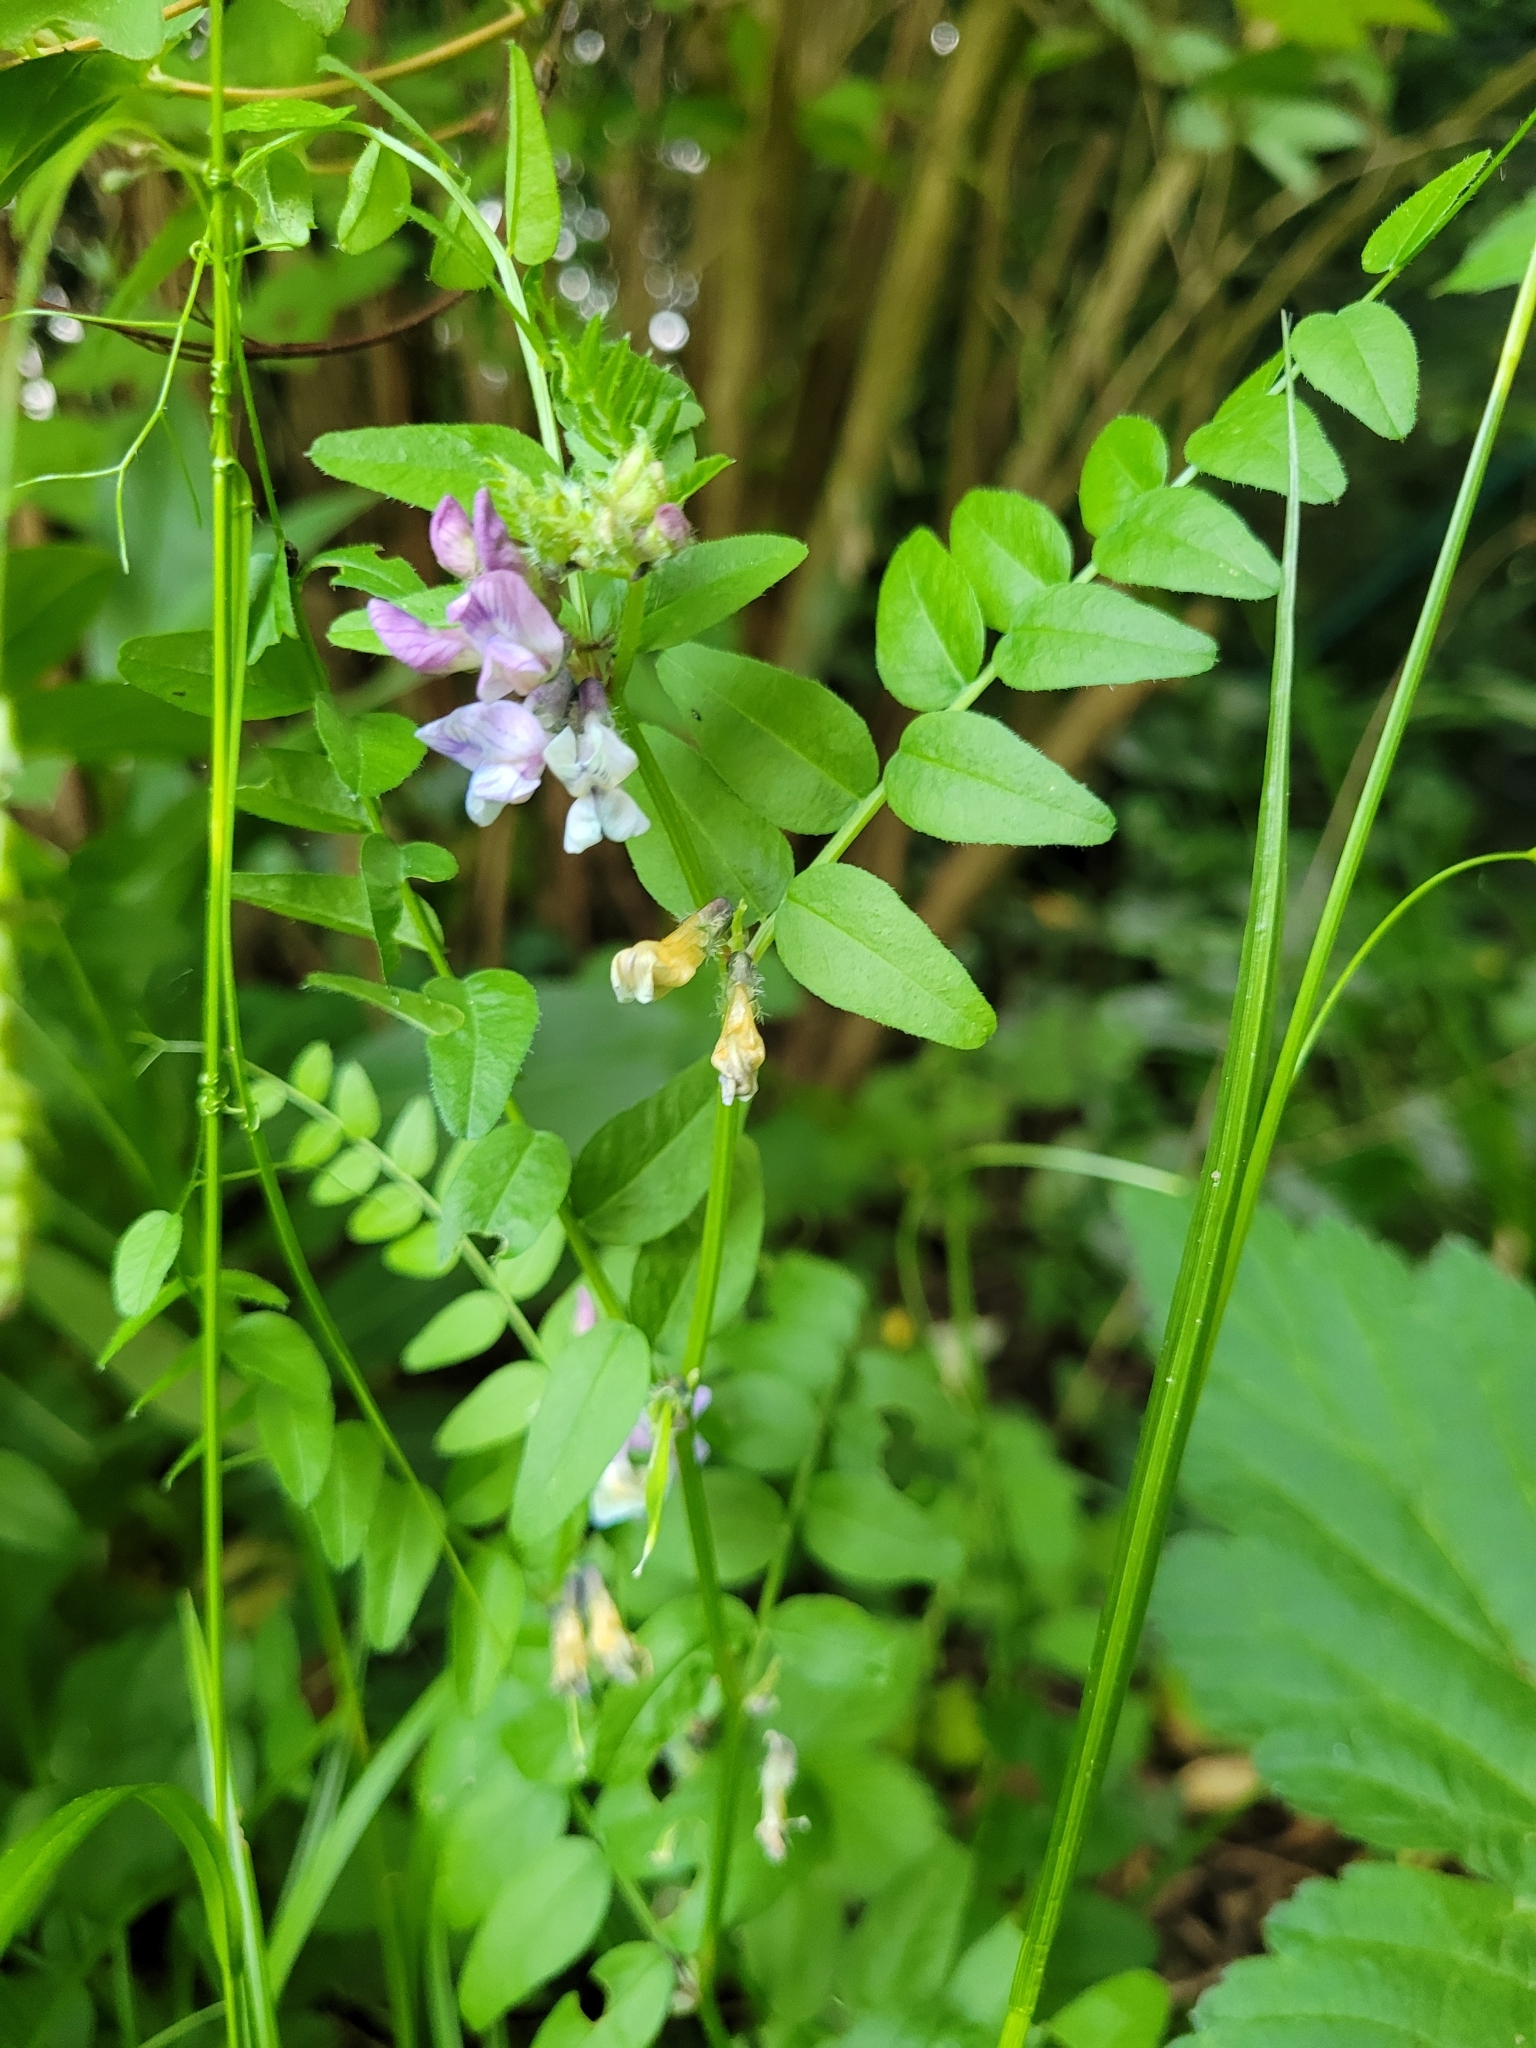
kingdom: Plantae
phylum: Tracheophyta
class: Magnoliopsida
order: Fabales
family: Fabaceae
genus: Vicia
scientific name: Vicia sepium
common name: Bush vetch
